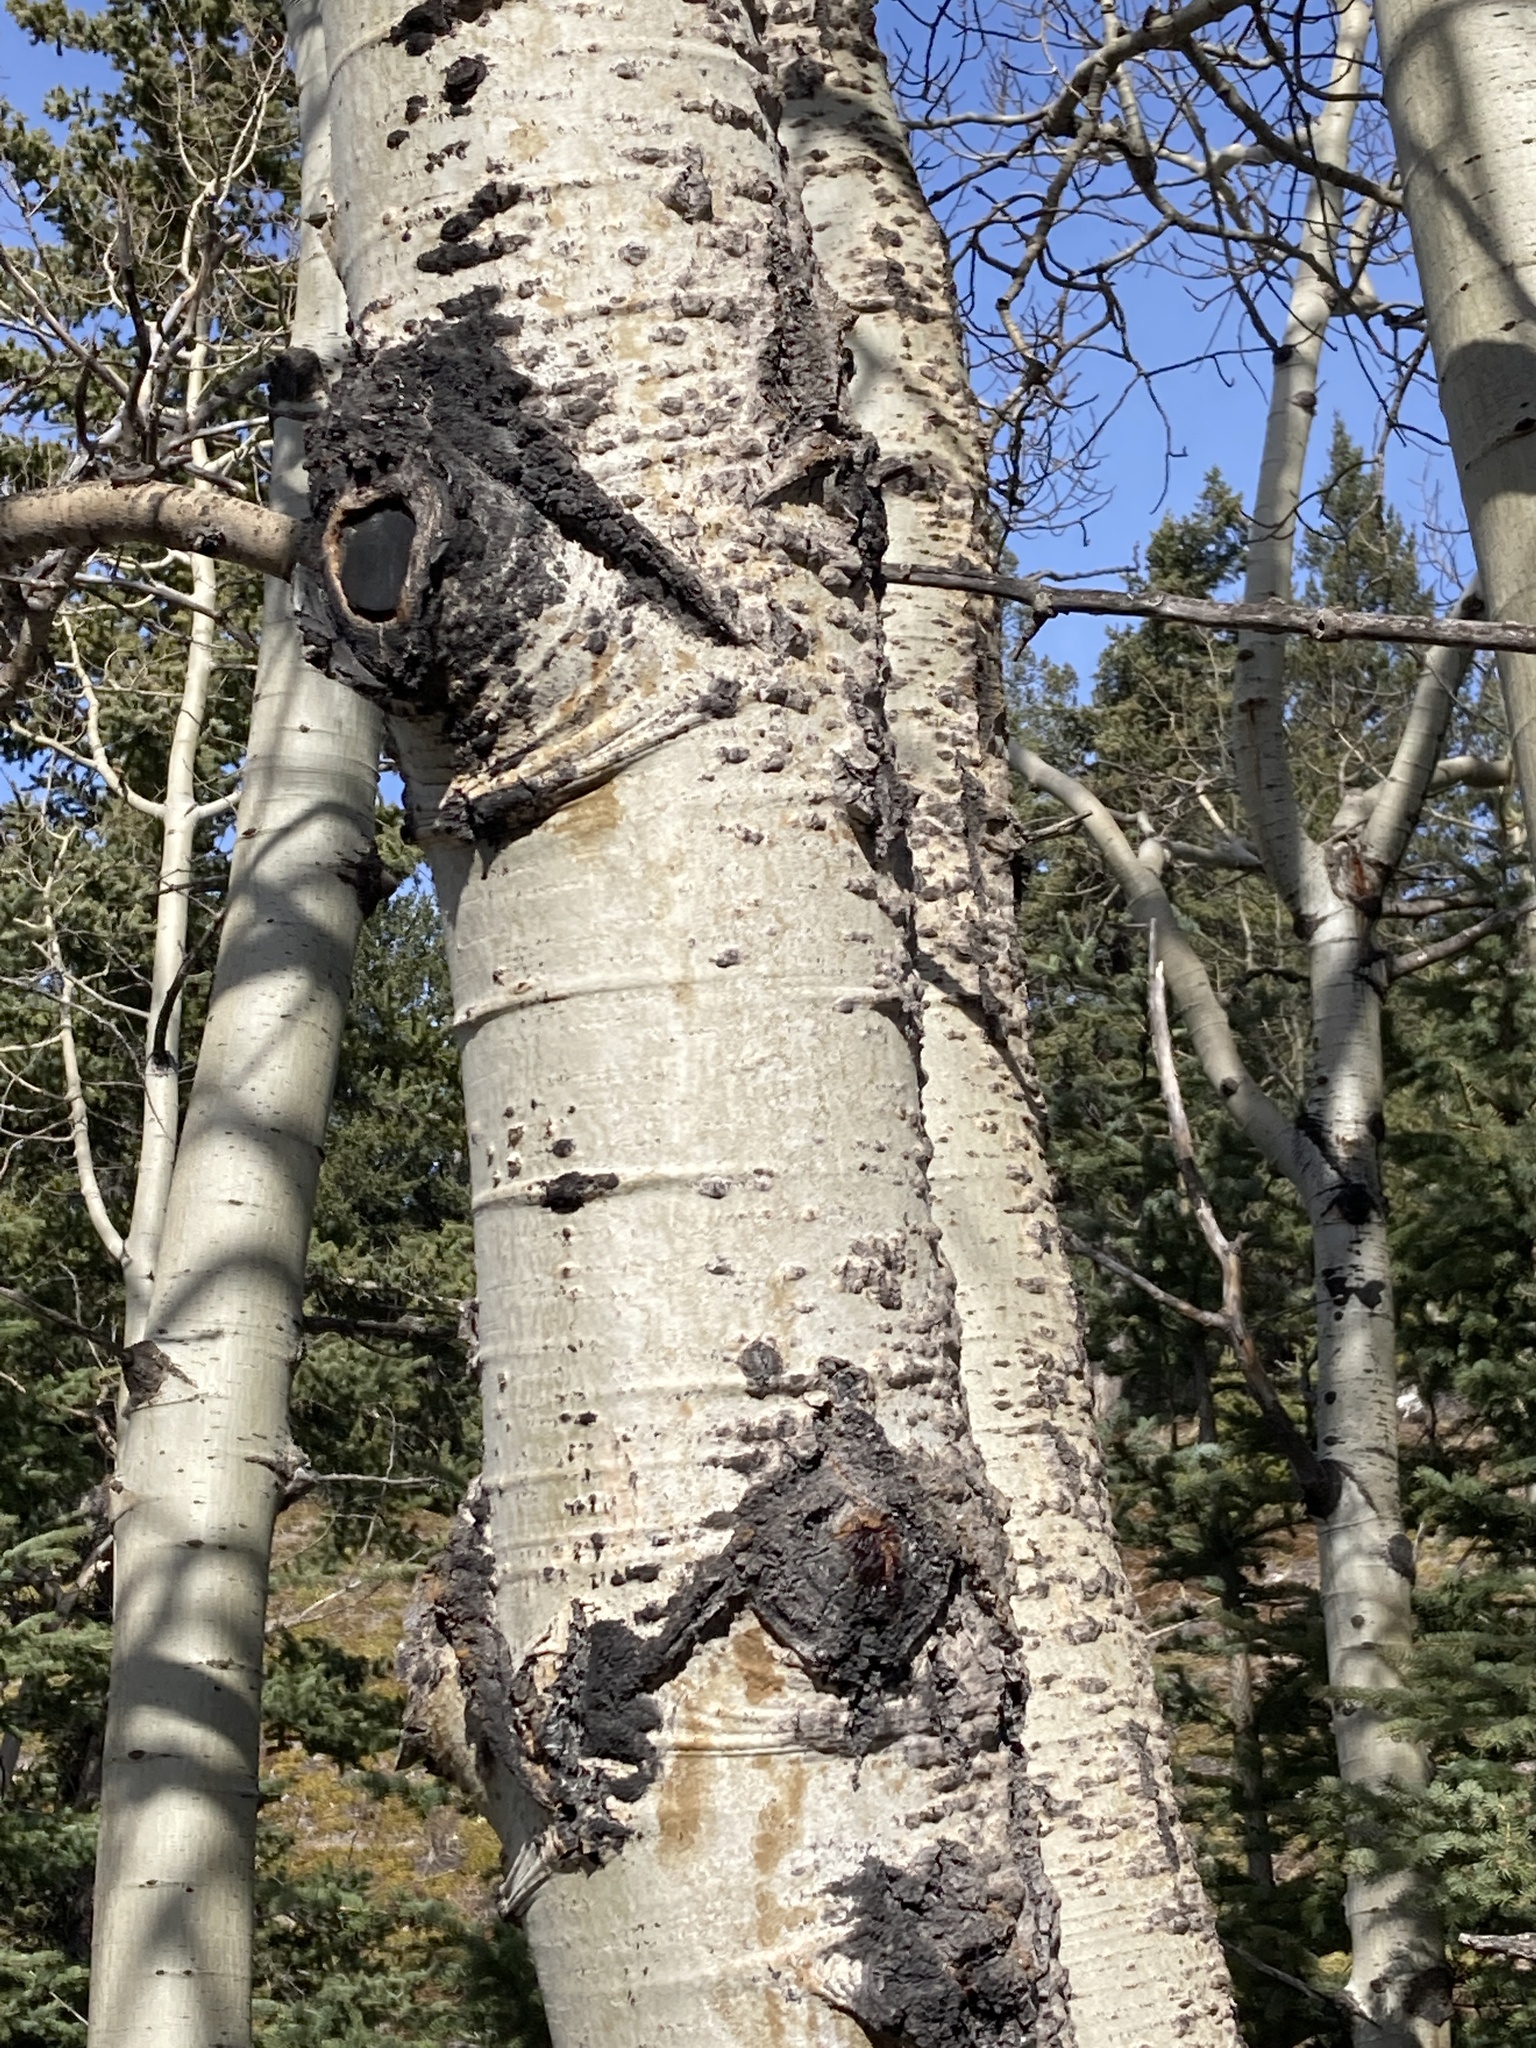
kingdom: Plantae
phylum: Tracheophyta
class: Magnoliopsida
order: Malpighiales
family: Salicaceae
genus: Populus
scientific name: Populus tremuloides
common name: Quaking aspen
